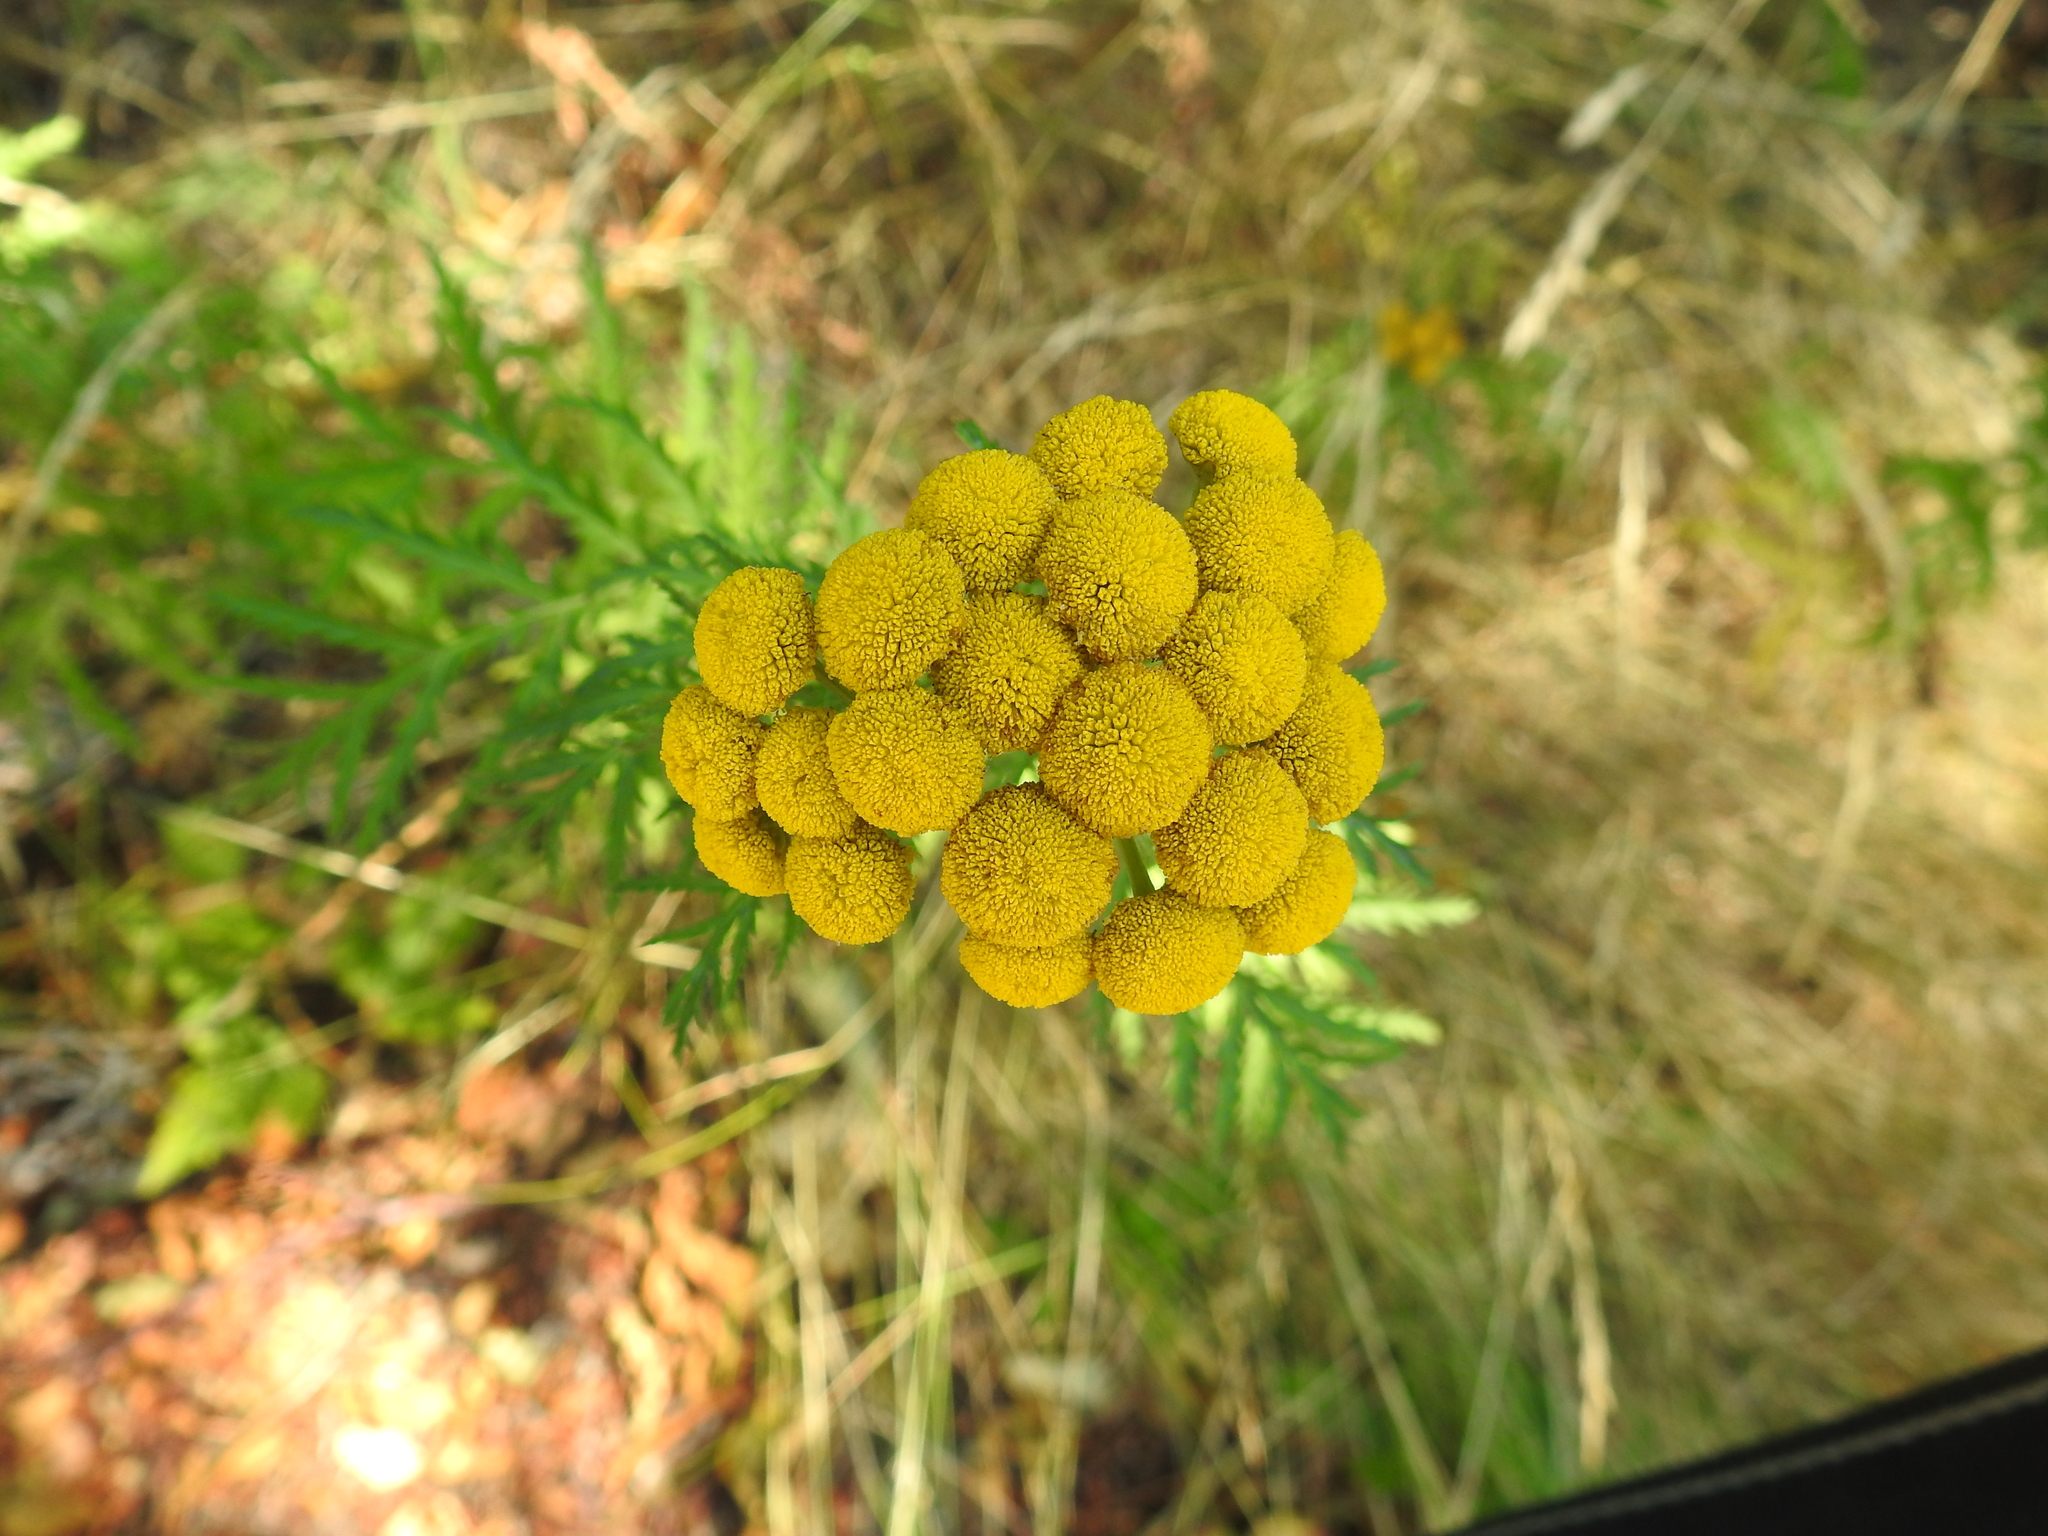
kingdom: Plantae
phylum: Tracheophyta
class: Magnoliopsida
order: Asterales
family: Asteraceae
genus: Tanacetum
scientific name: Tanacetum vulgare
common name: Common tansy
